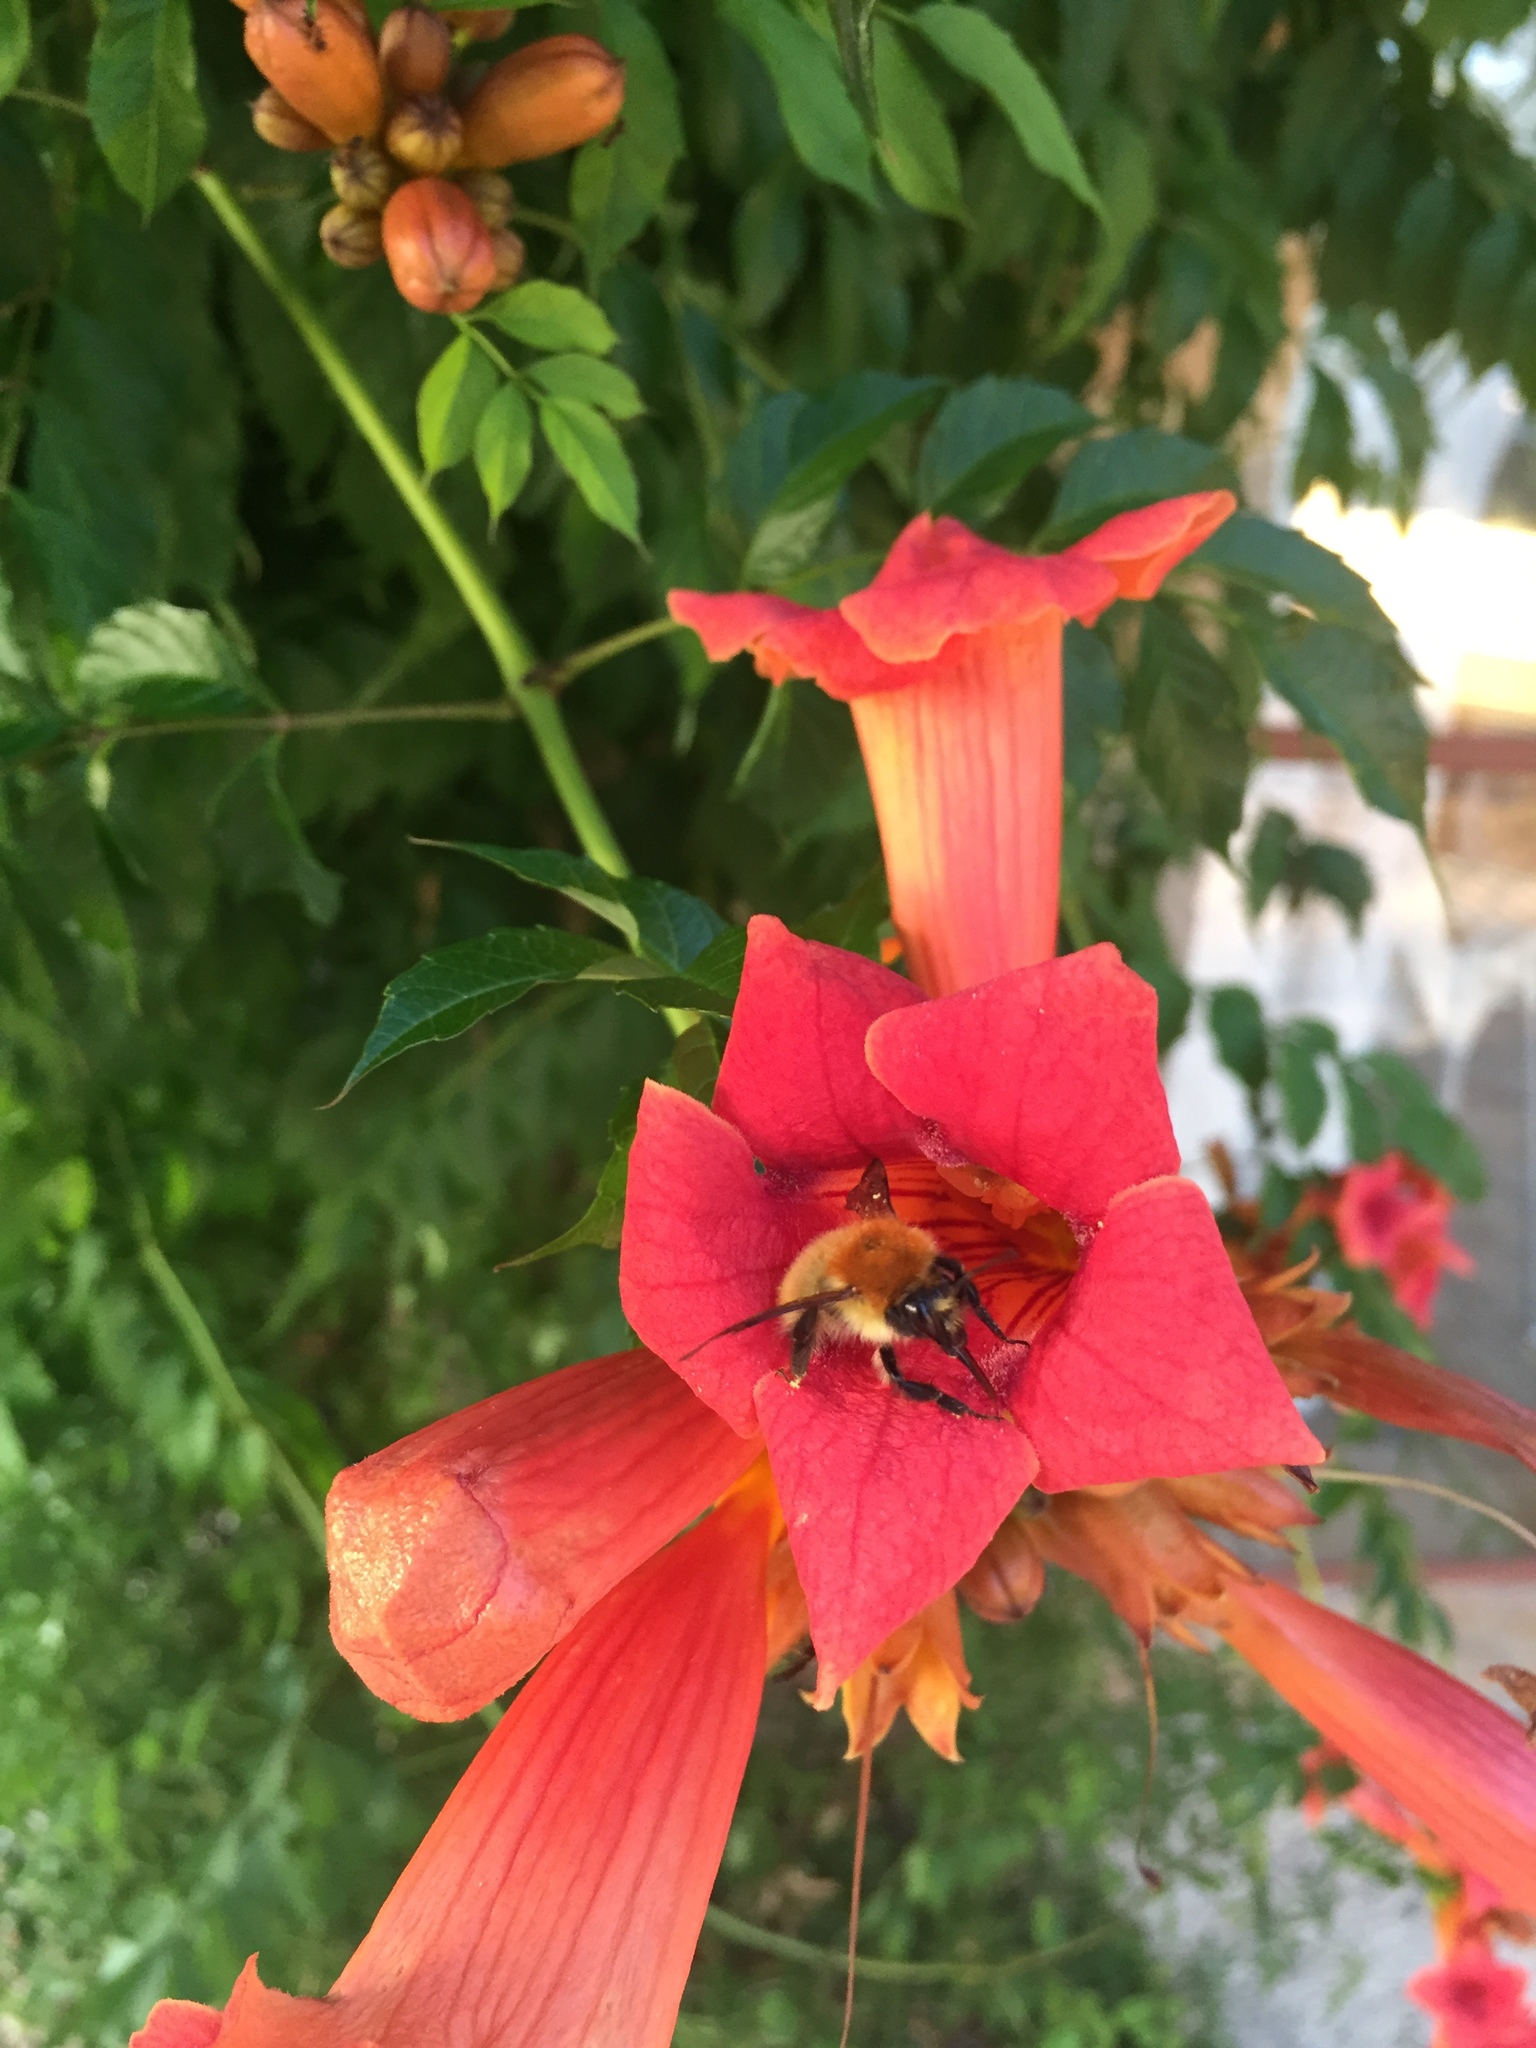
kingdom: Animalia
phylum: Arthropoda
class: Insecta
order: Hymenoptera
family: Apidae
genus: Bombus
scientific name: Bombus pascuorum
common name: Common carder bee
